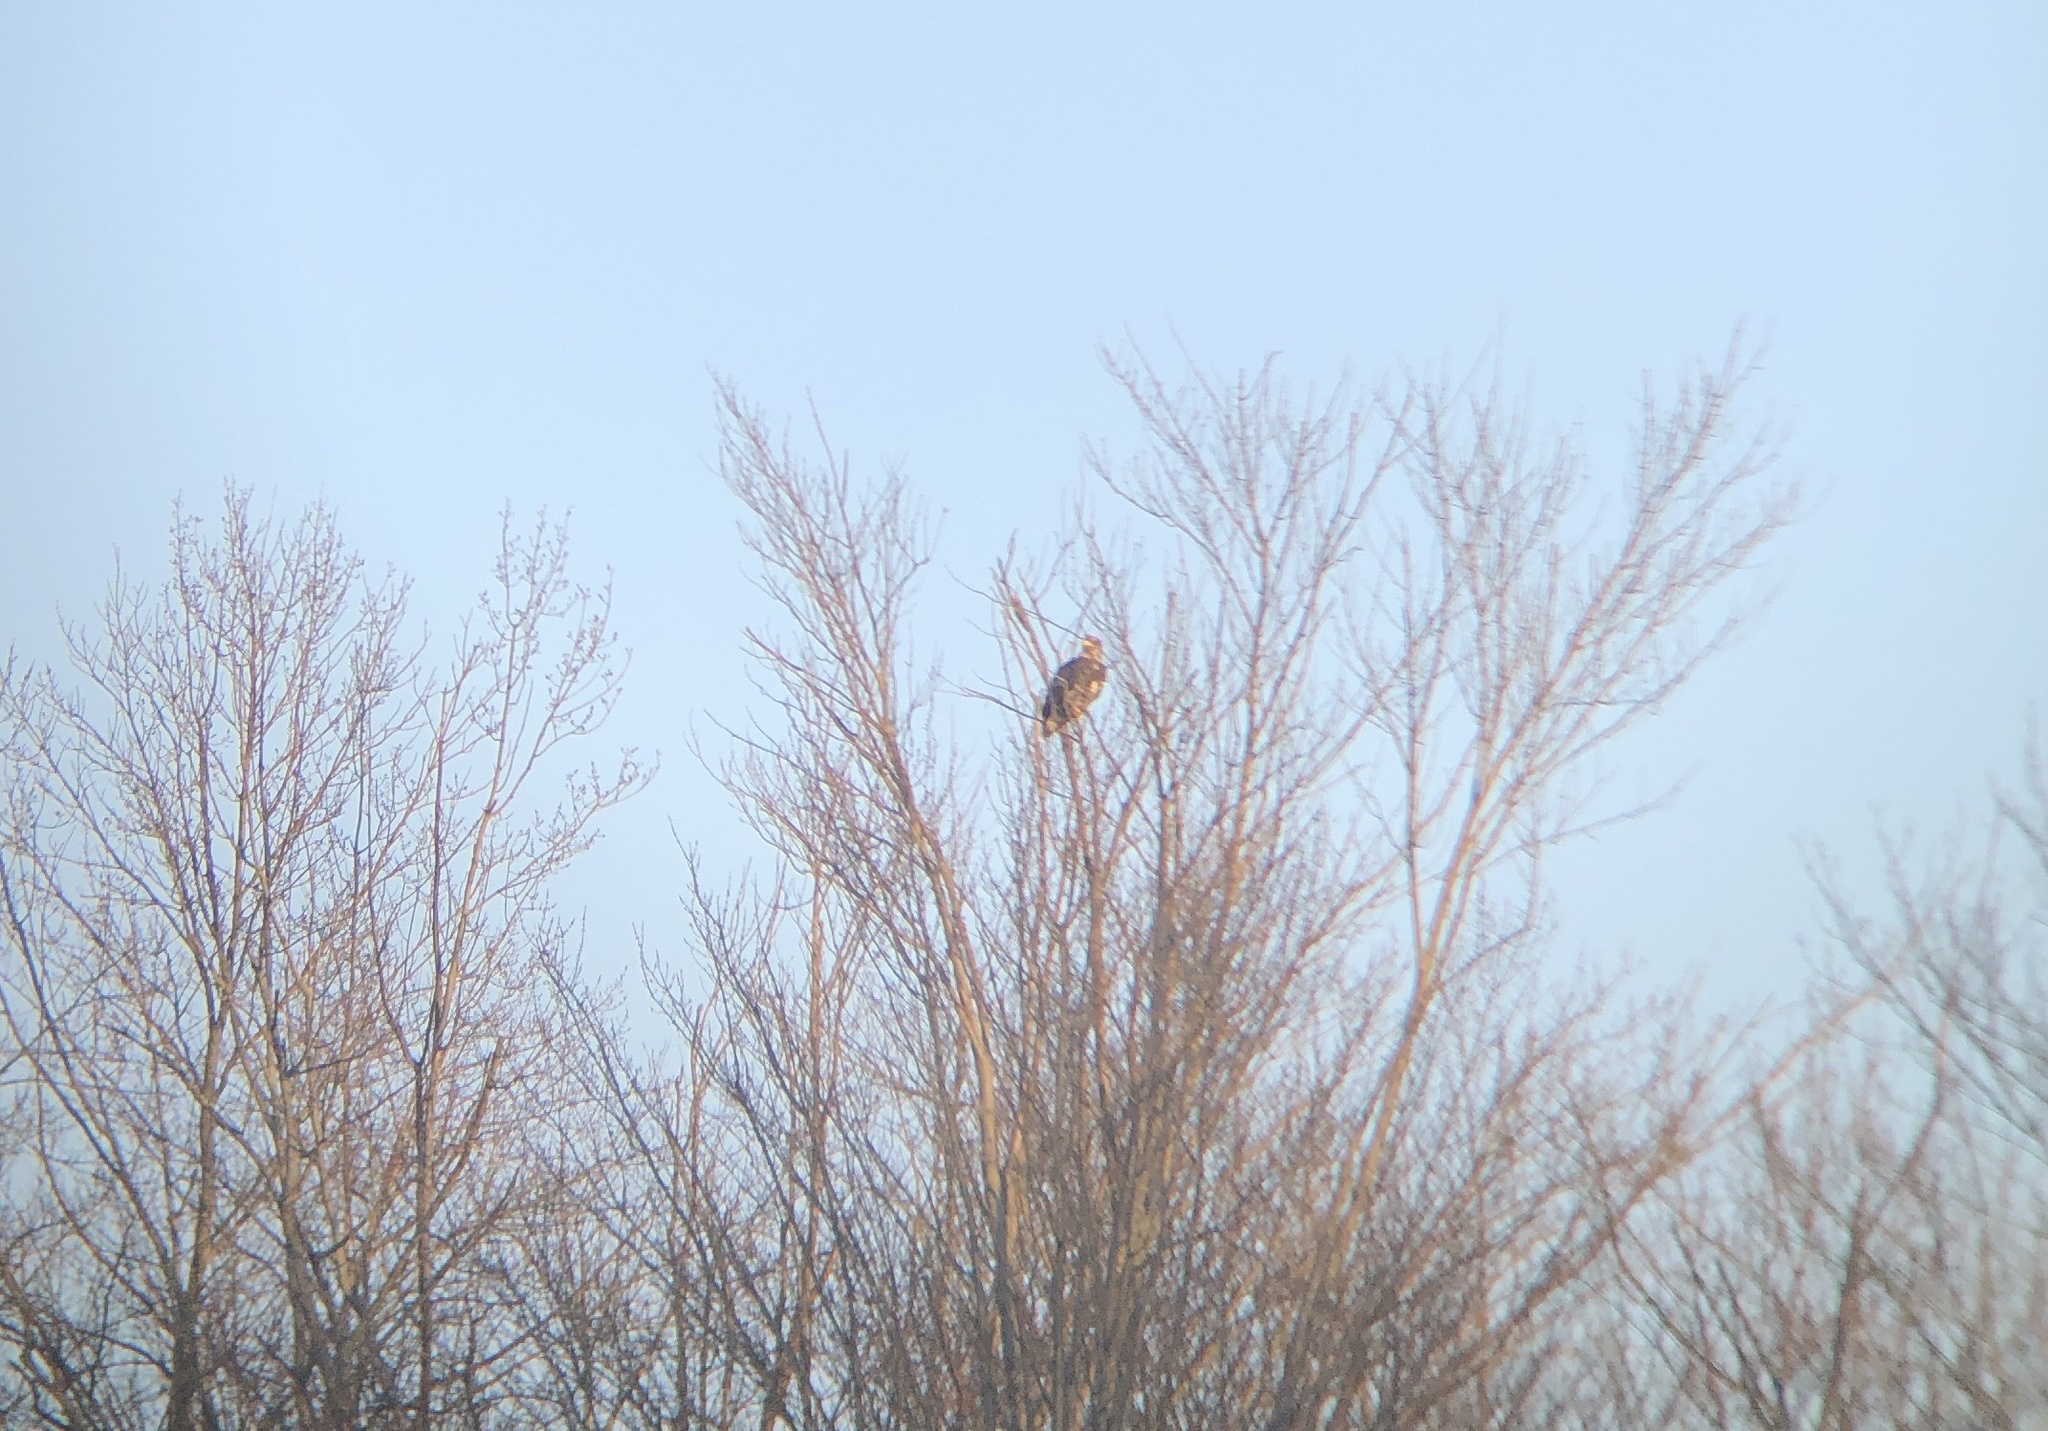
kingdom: Animalia
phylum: Chordata
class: Aves
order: Accipitriformes
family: Accipitridae
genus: Haliaeetus
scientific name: Haliaeetus leucocephalus
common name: Bald eagle
